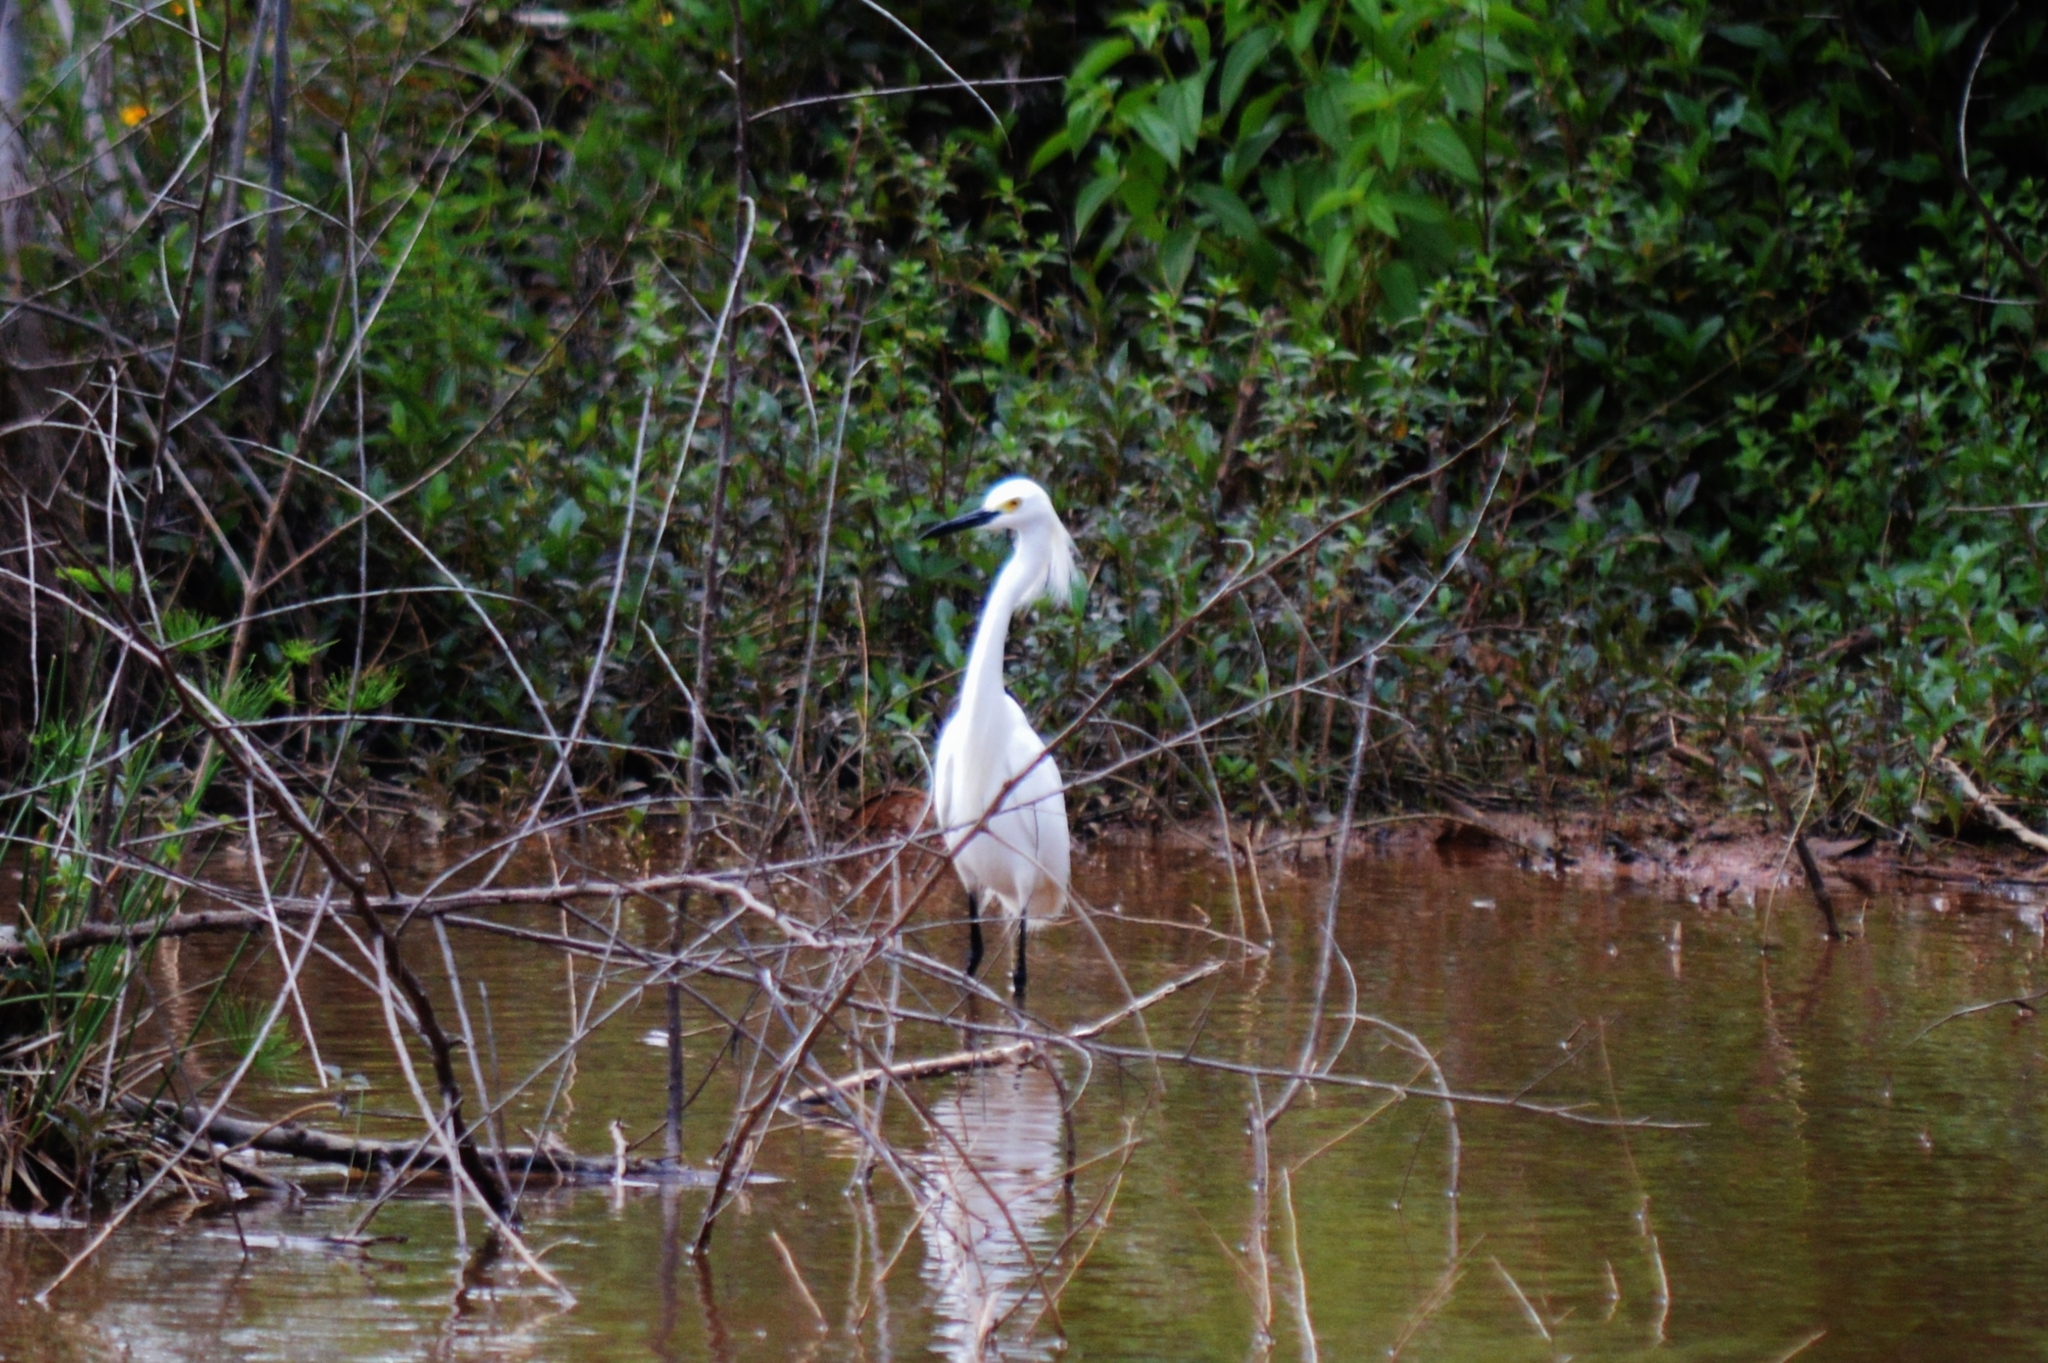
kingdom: Animalia
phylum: Chordata
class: Aves
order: Pelecaniformes
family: Ardeidae
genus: Egretta
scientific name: Egretta thula
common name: Snowy egret
